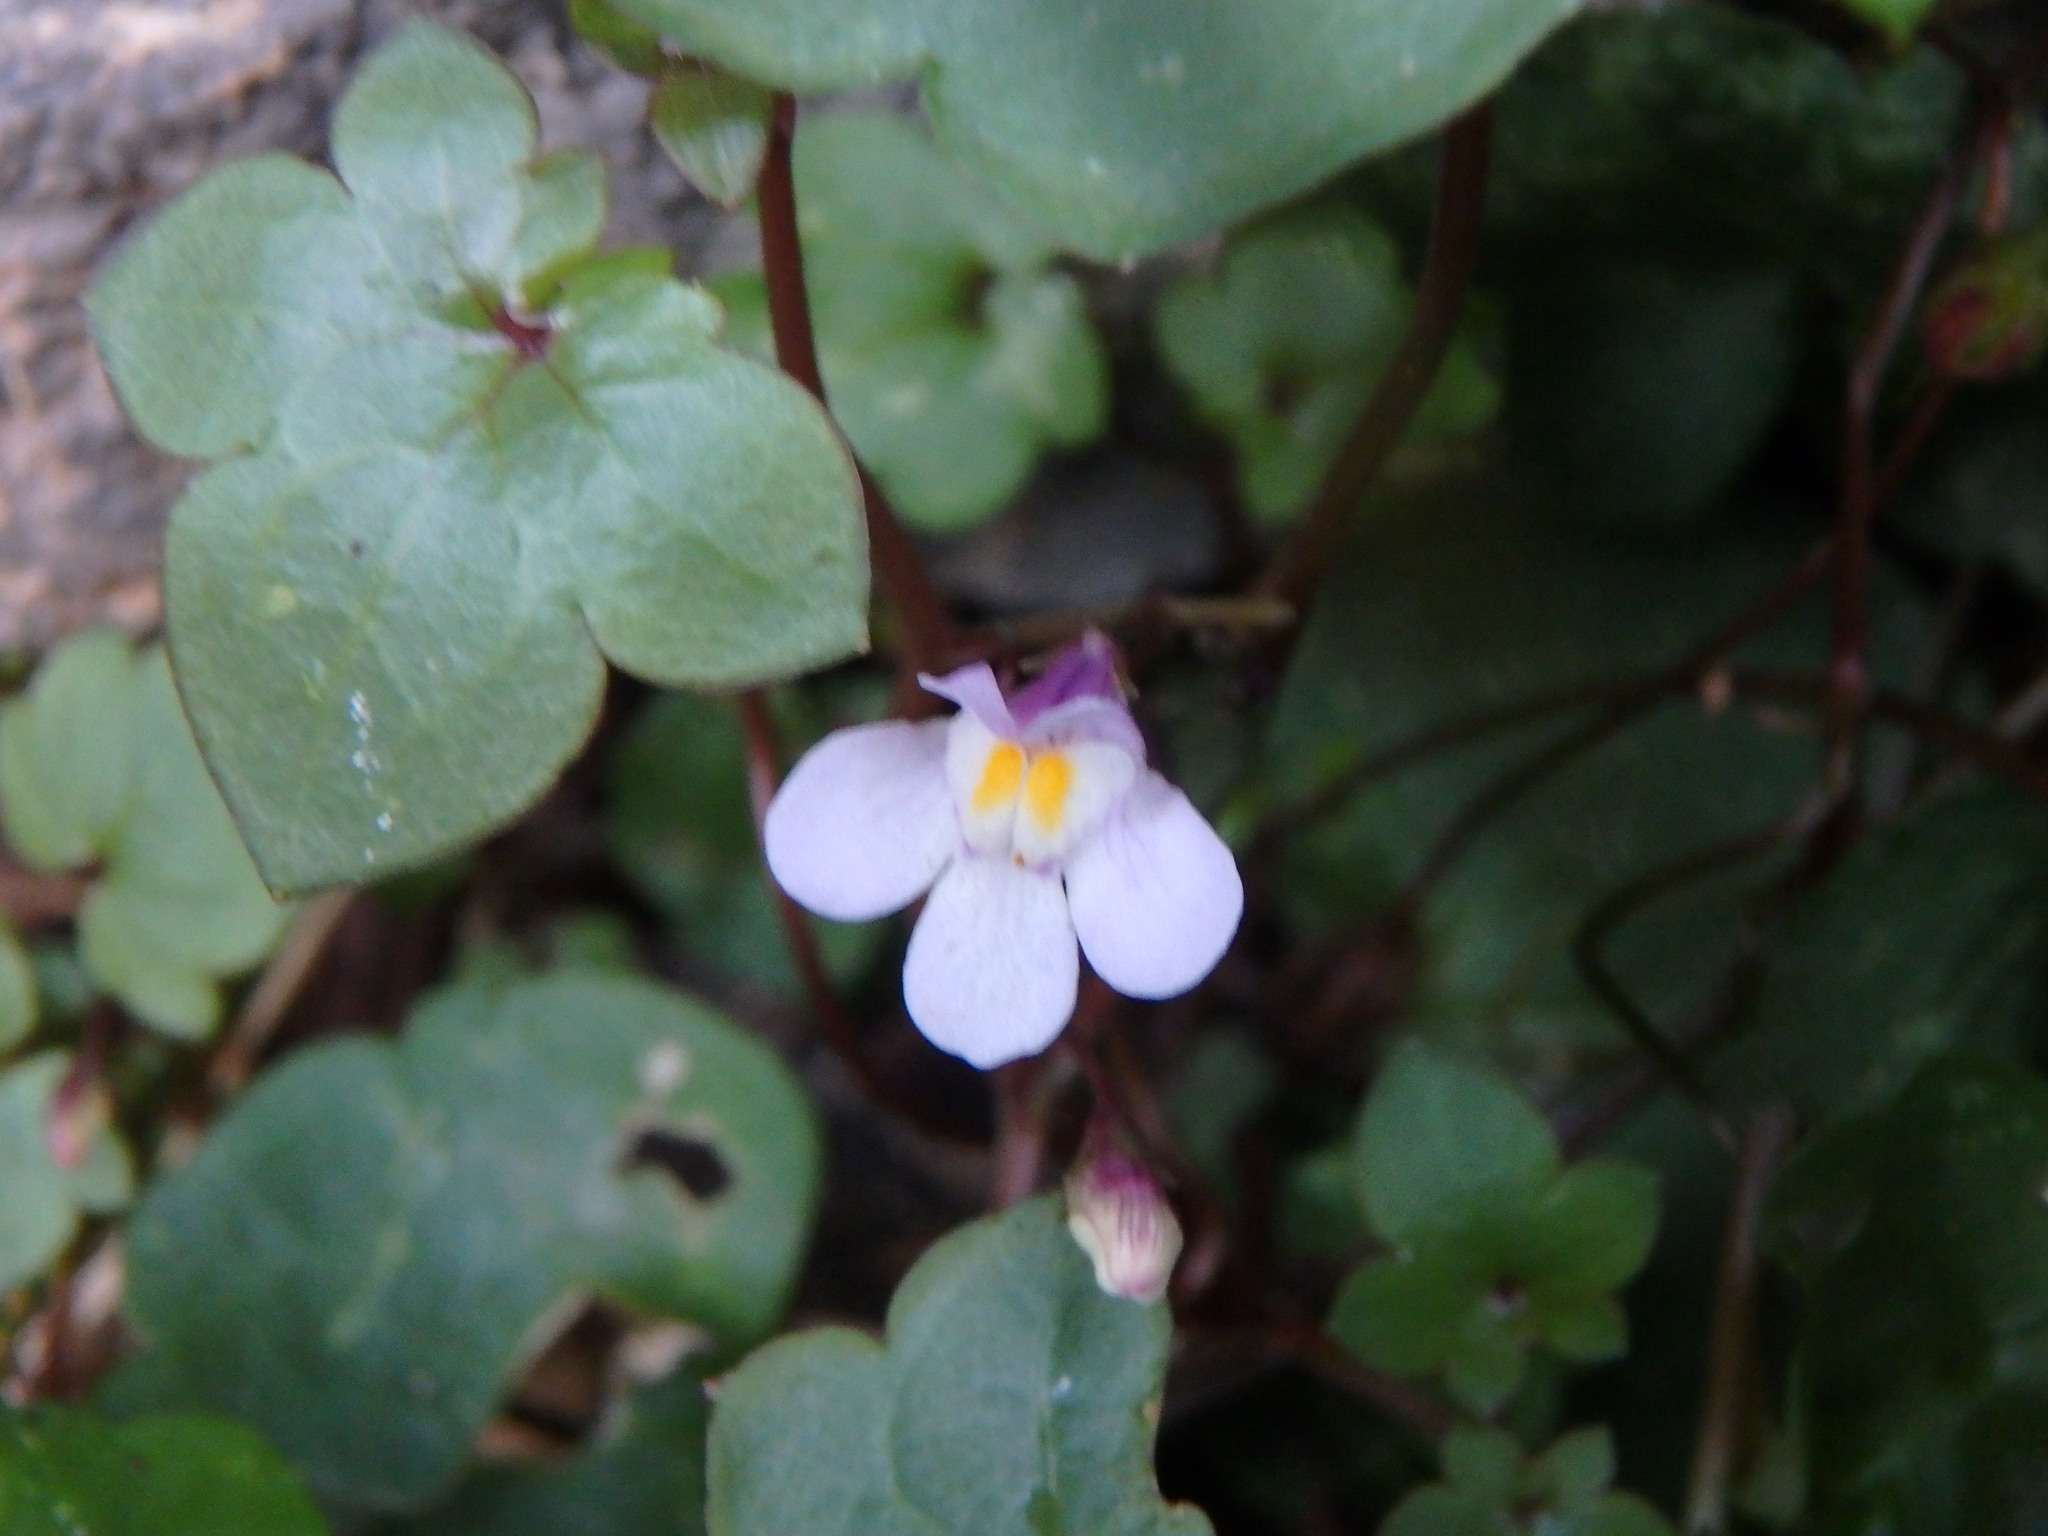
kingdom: Plantae
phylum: Tracheophyta
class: Magnoliopsida
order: Lamiales
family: Plantaginaceae
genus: Cymbalaria
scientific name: Cymbalaria muralis
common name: Ivy-leaved toadflax
